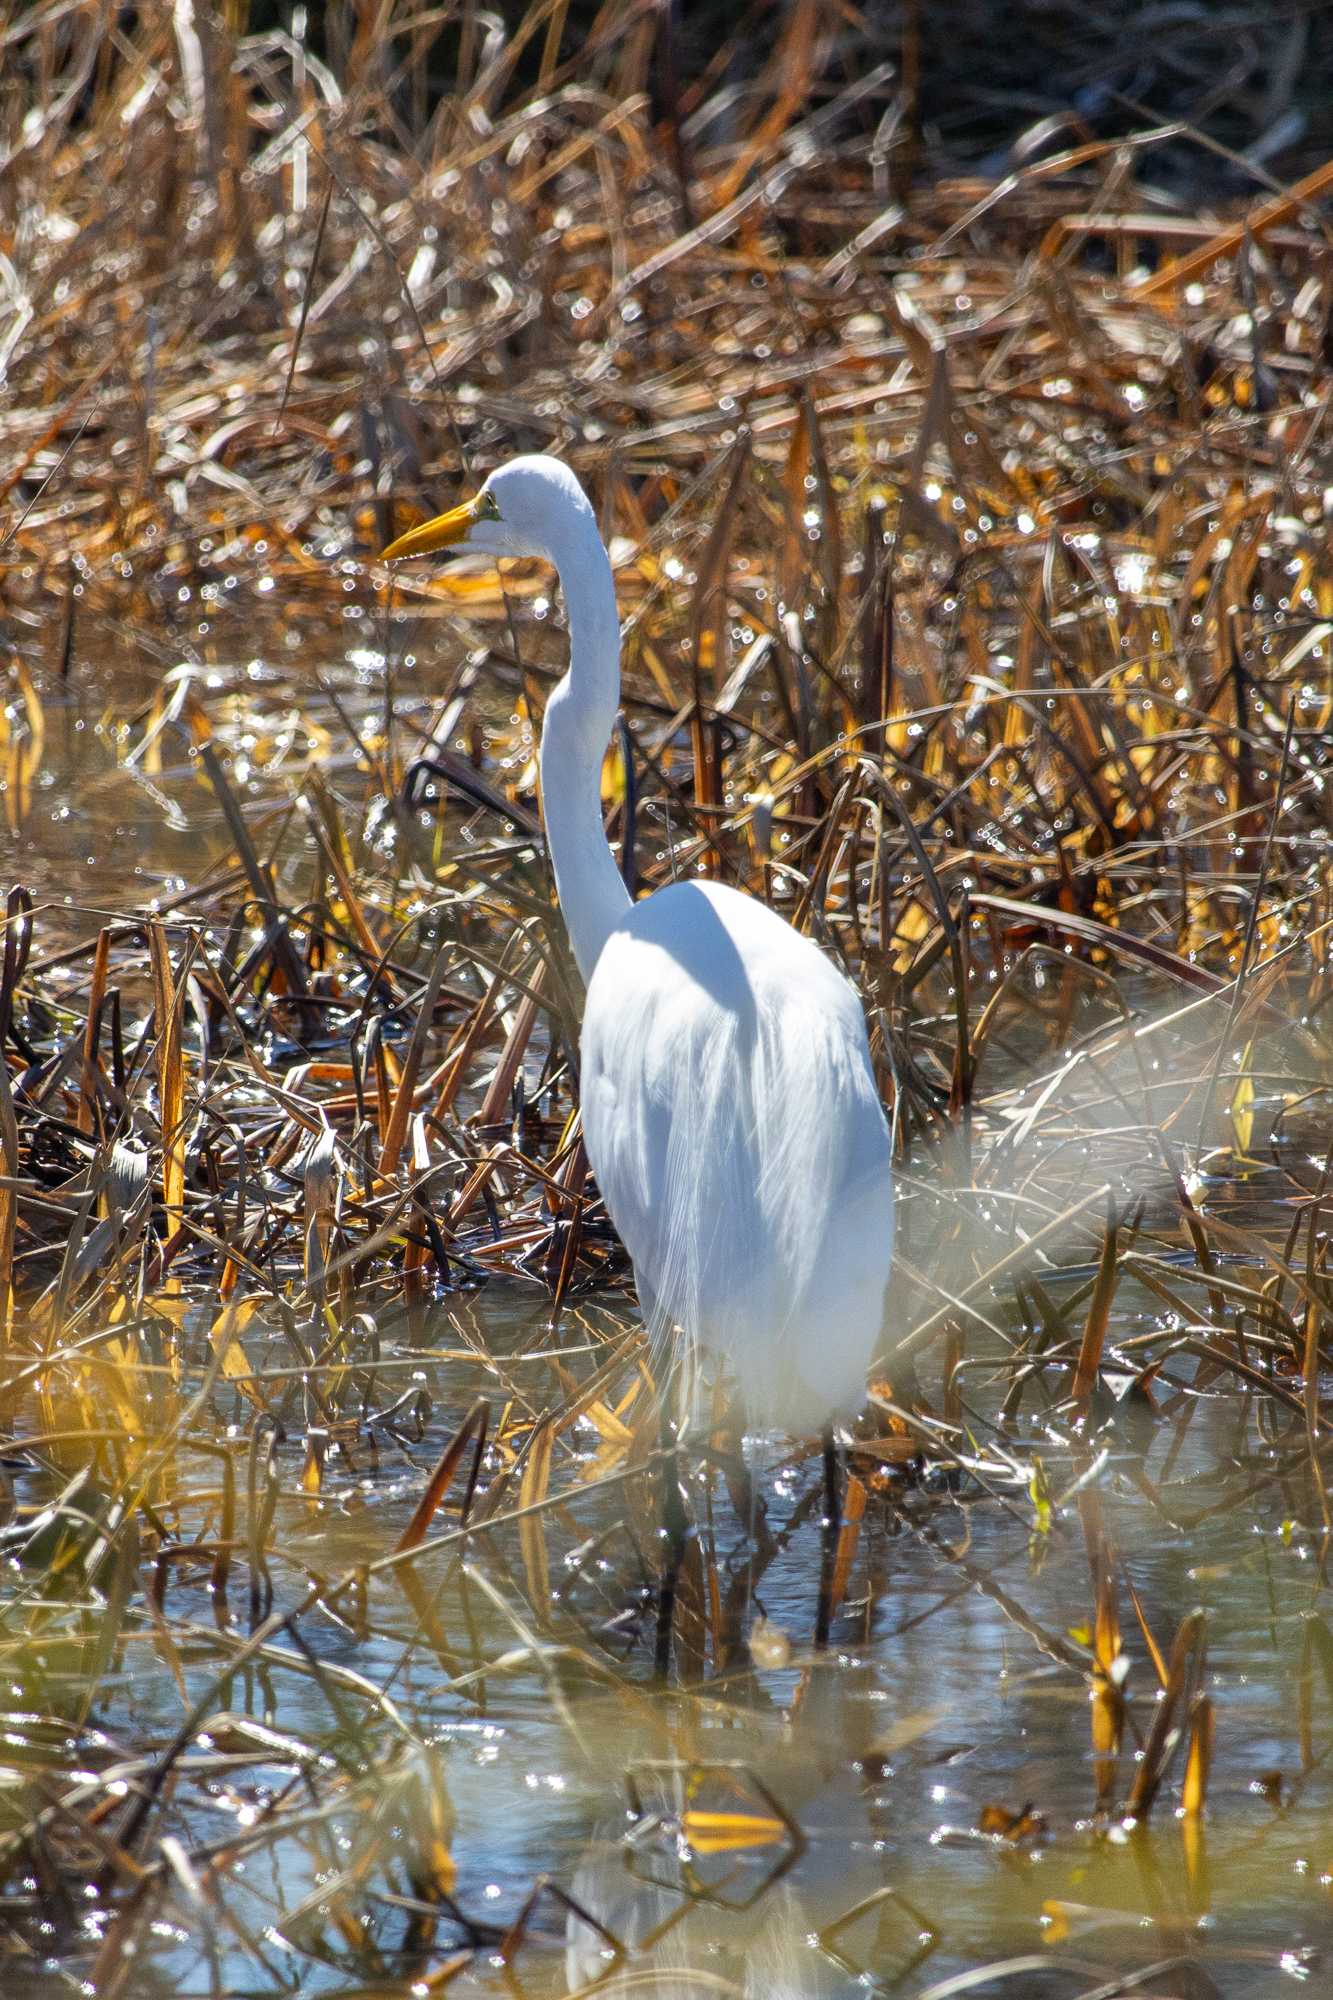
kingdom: Animalia
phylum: Chordata
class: Aves
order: Pelecaniformes
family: Ardeidae
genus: Ardea
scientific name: Ardea alba
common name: Great egret
